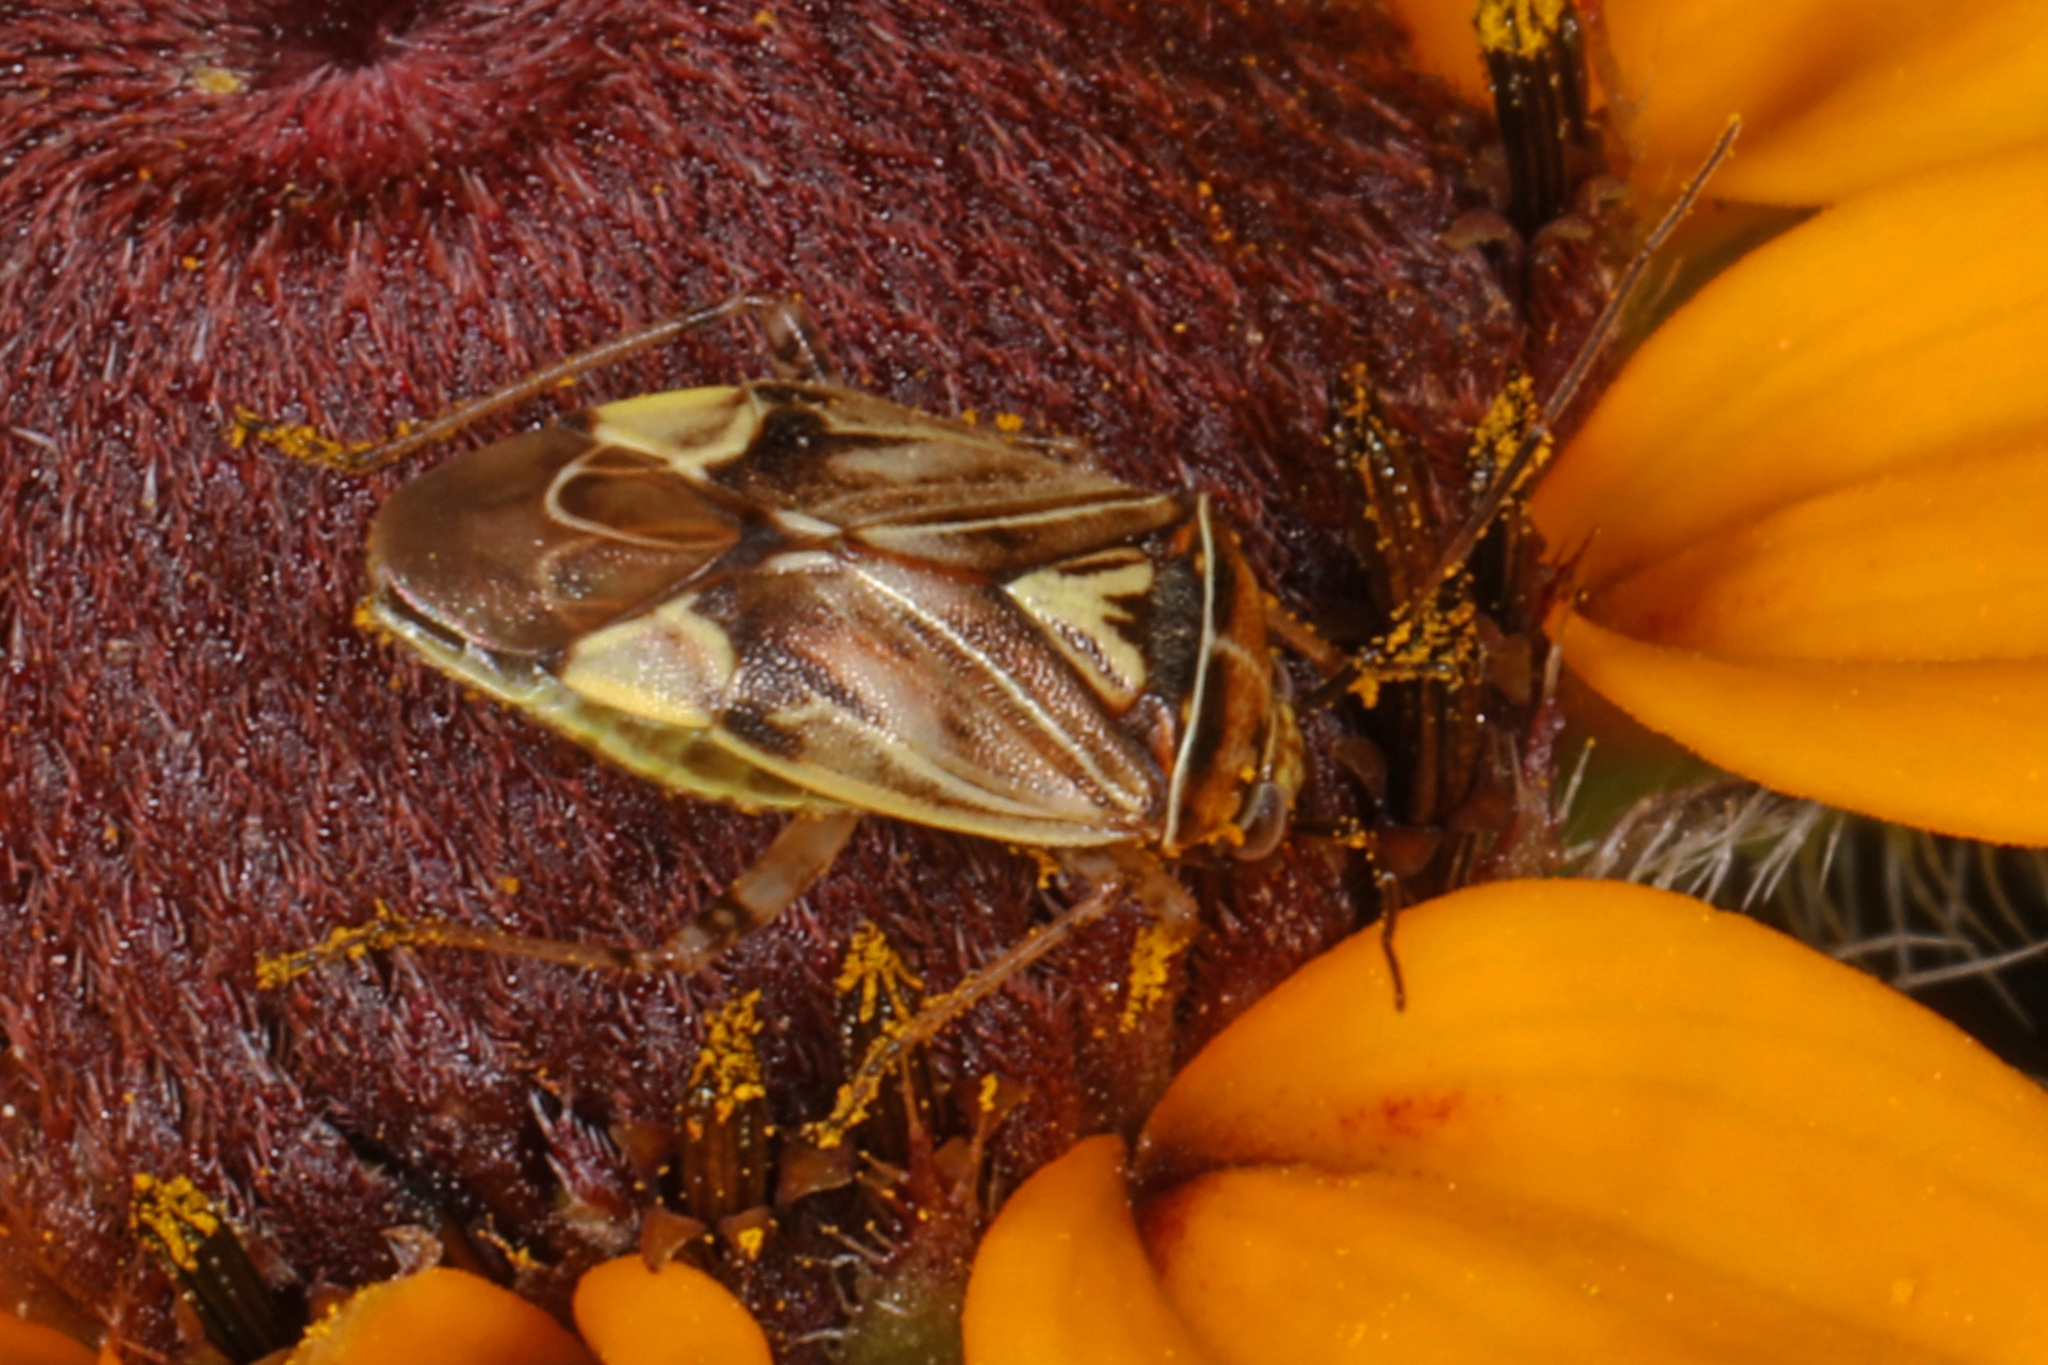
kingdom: Animalia
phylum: Arthropoda
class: Insecta
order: Hemiptera
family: Miridae
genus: Lygus
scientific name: Lygus lineolaris
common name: North american tarnished plant bug
